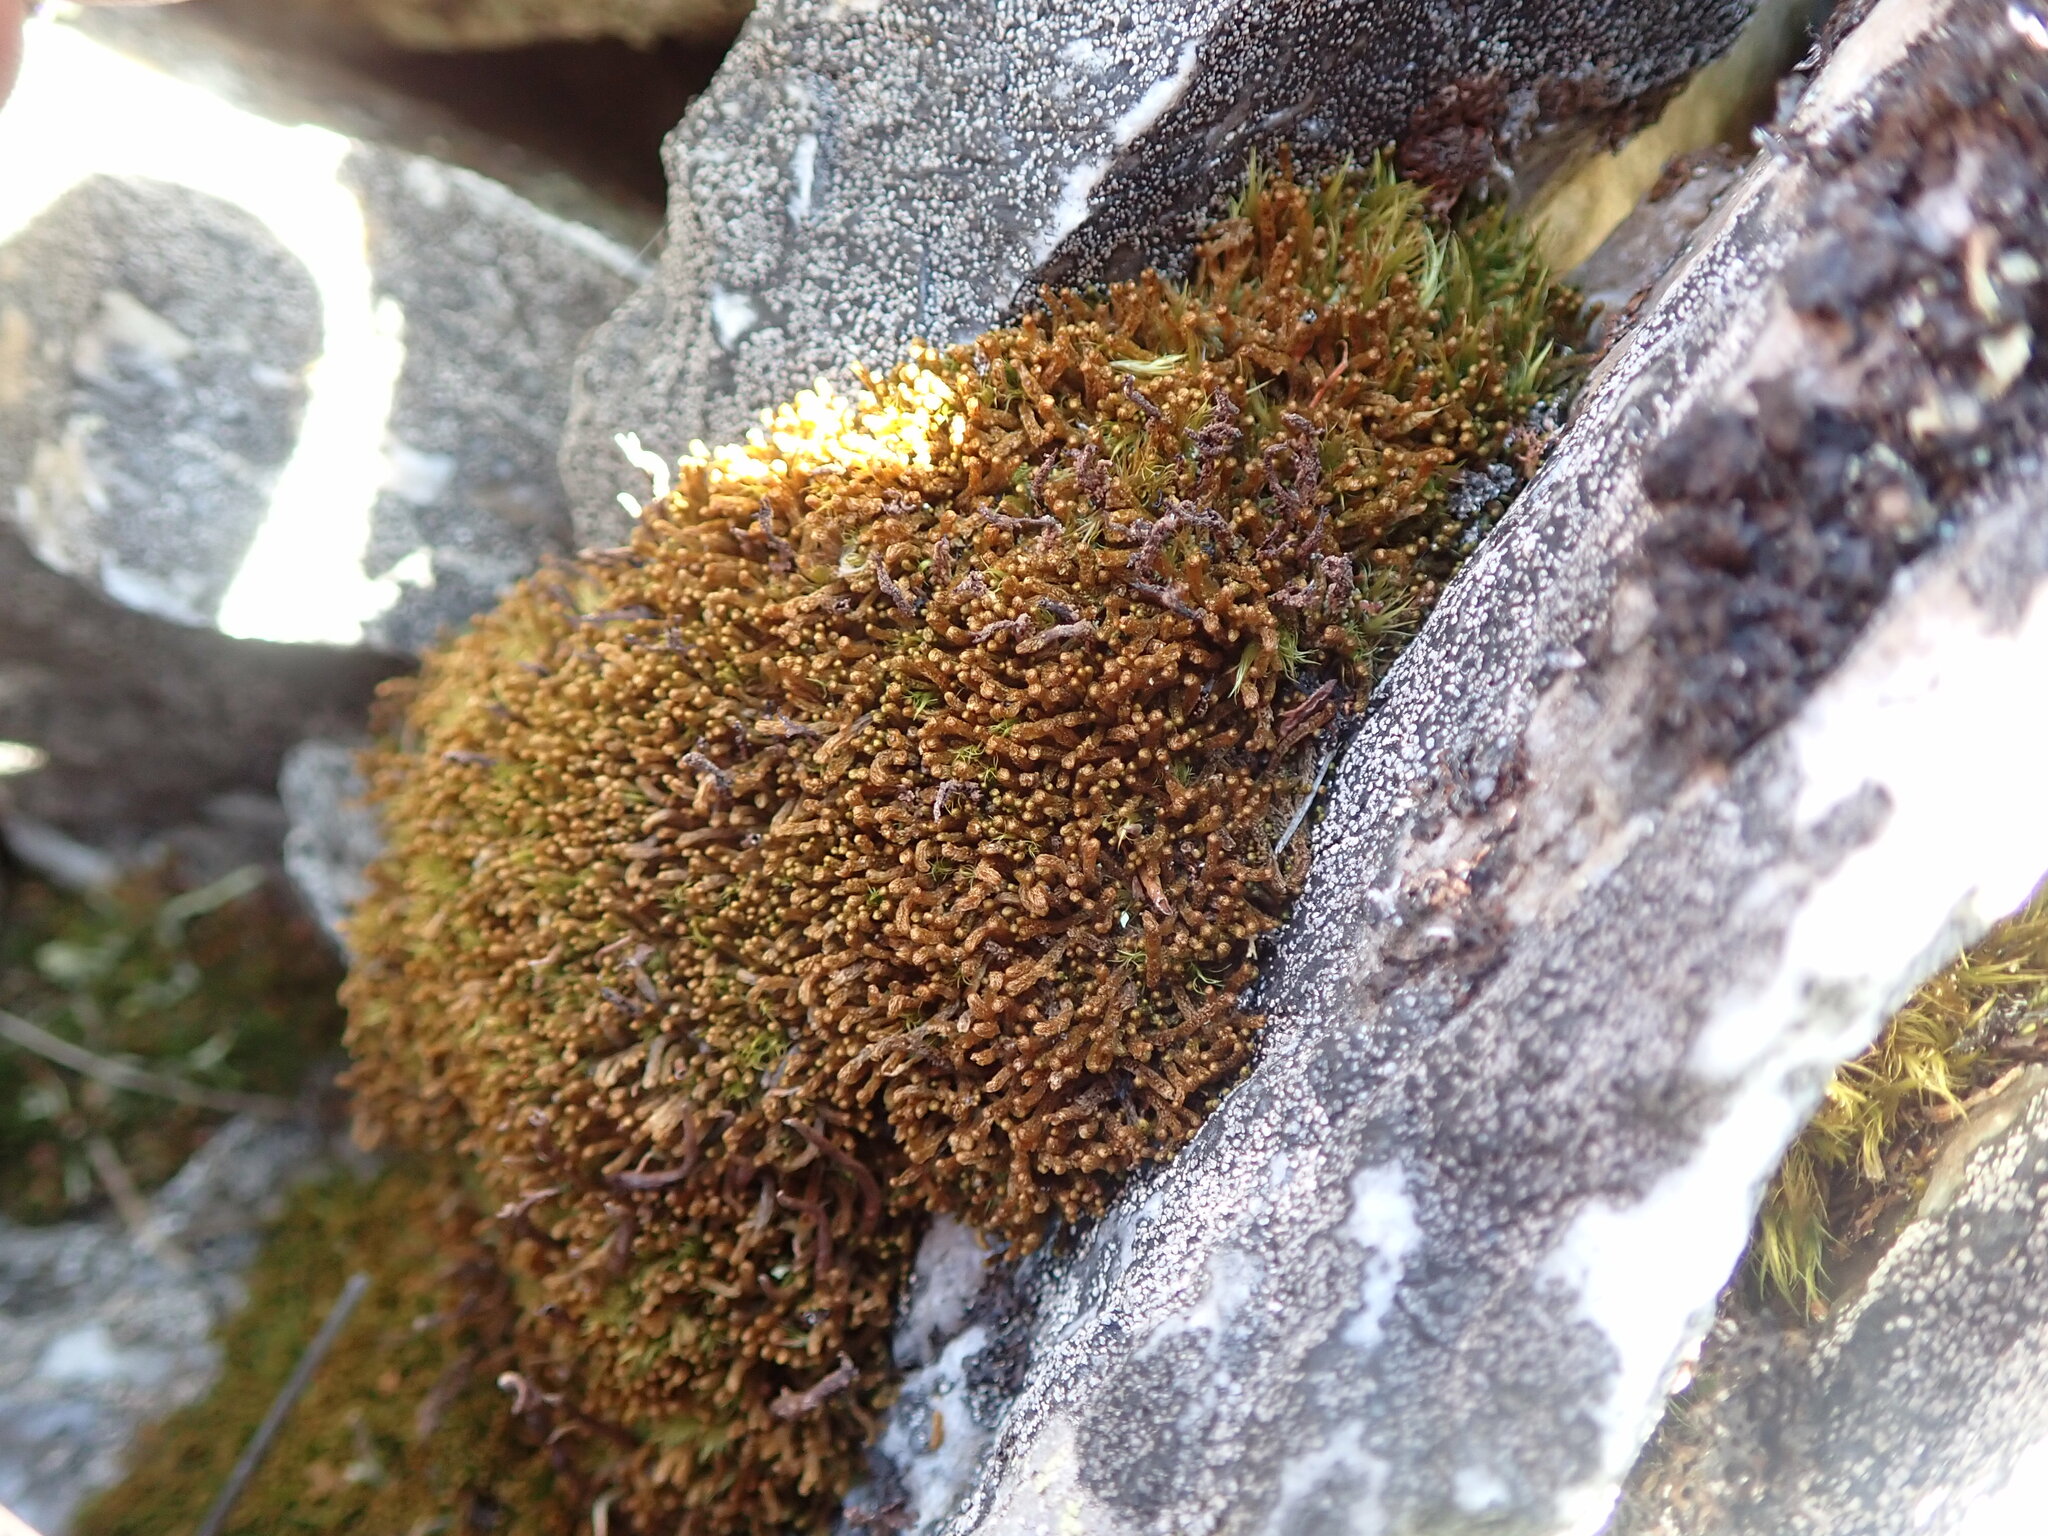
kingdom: Plantae
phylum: Marchantiophyta
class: Jungermanniopsida
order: Jungermanniales
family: Anastrophyllaceae
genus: Tetralophozia
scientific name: Tetralophozia setiformis
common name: Monster pawwort
